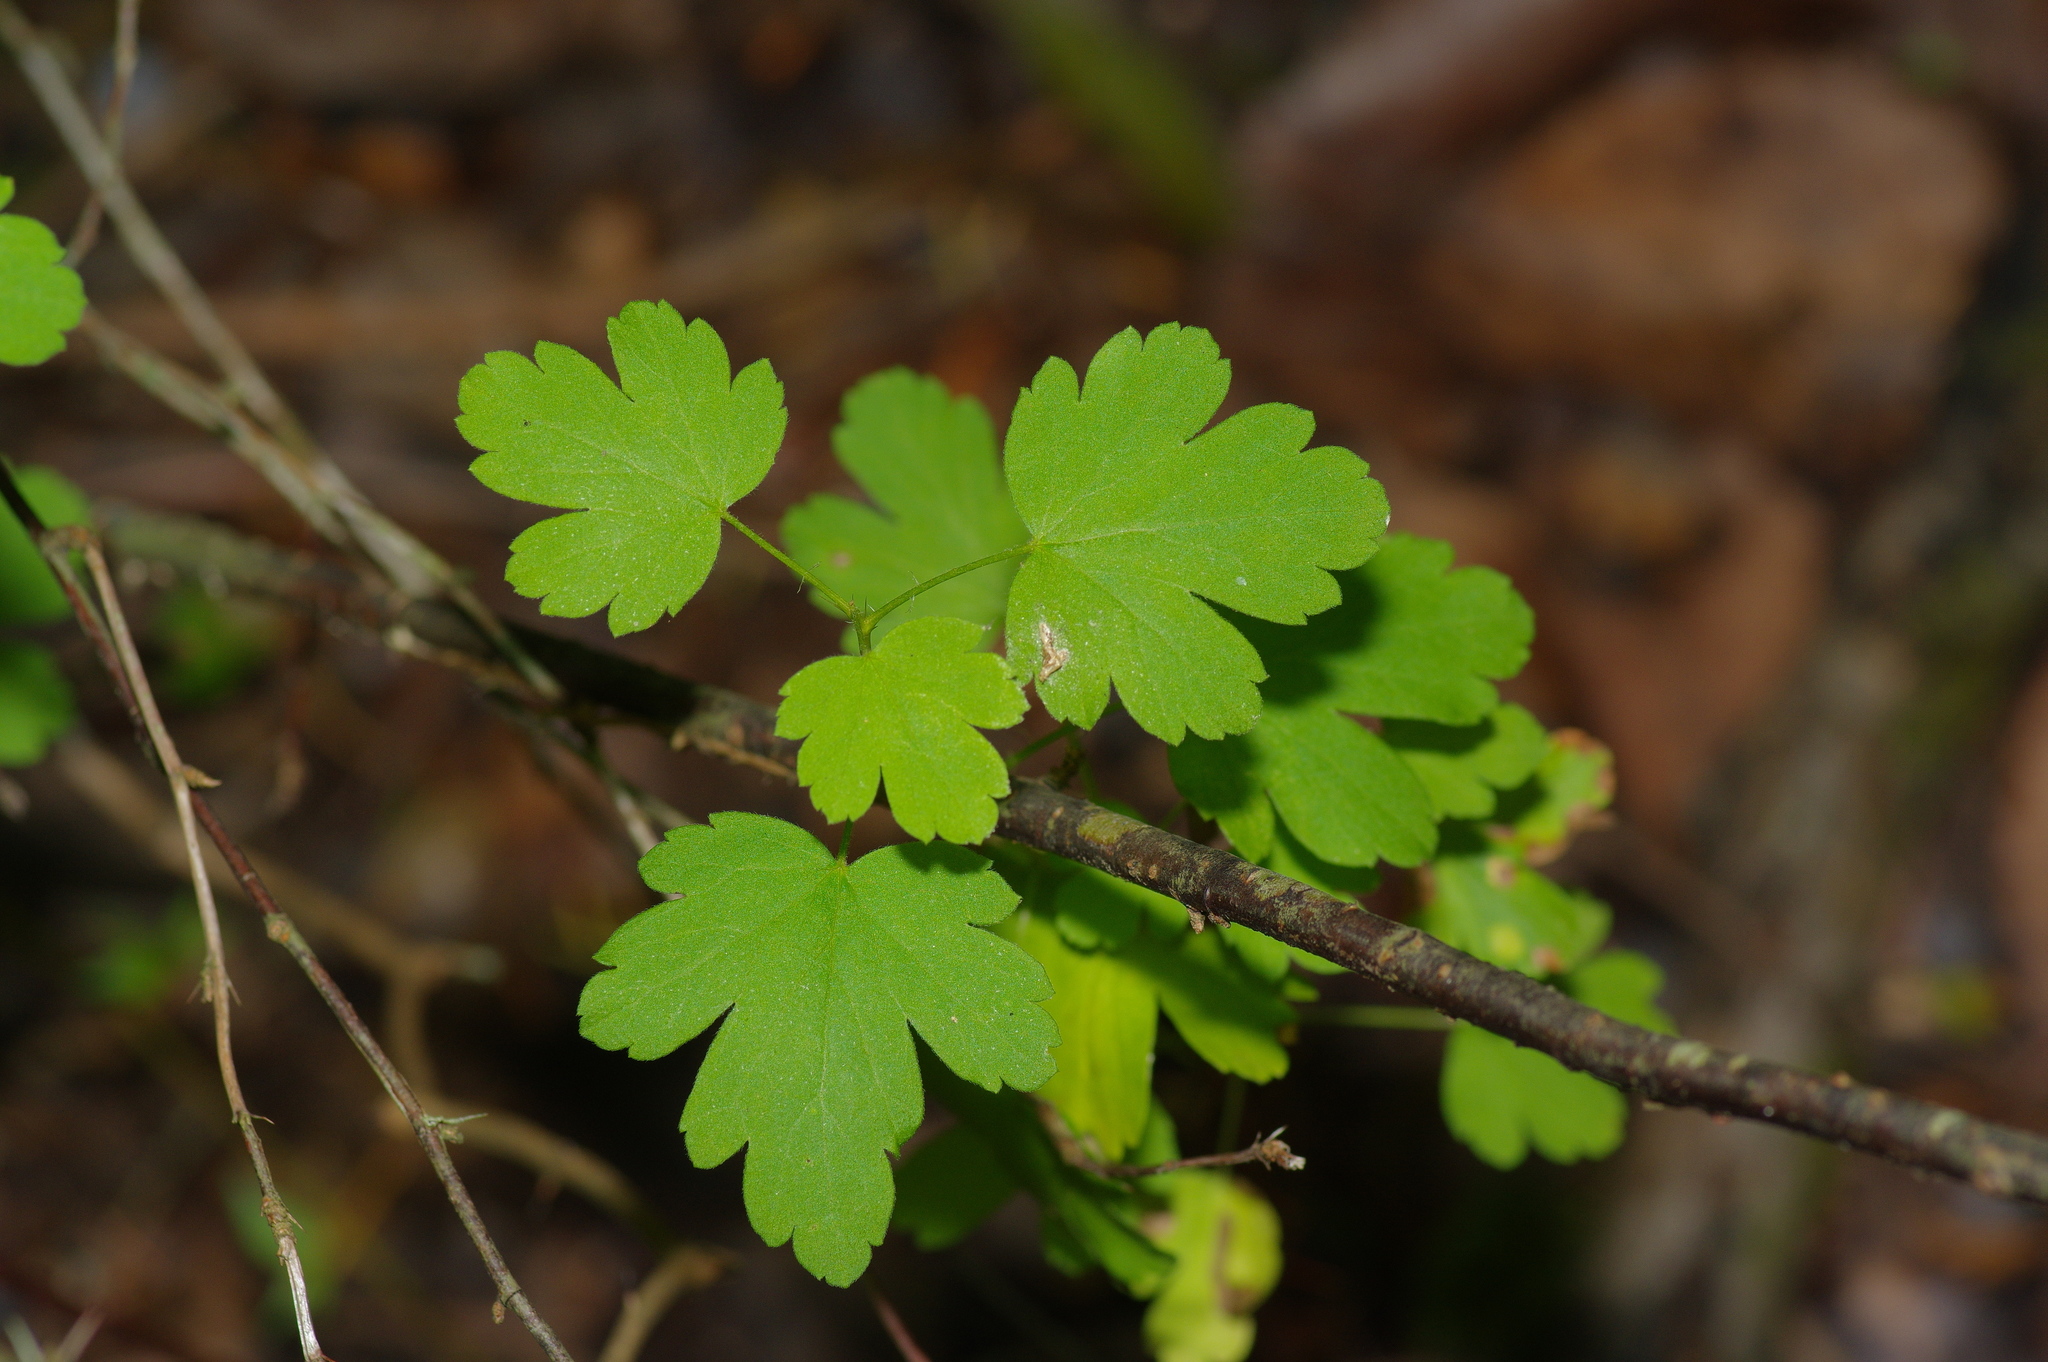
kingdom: Plantae
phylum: Tracheophyta
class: Magnoliopsida
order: Saxifragales
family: Grossulariaceae
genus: Ribes
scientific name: Ribes curvatum
